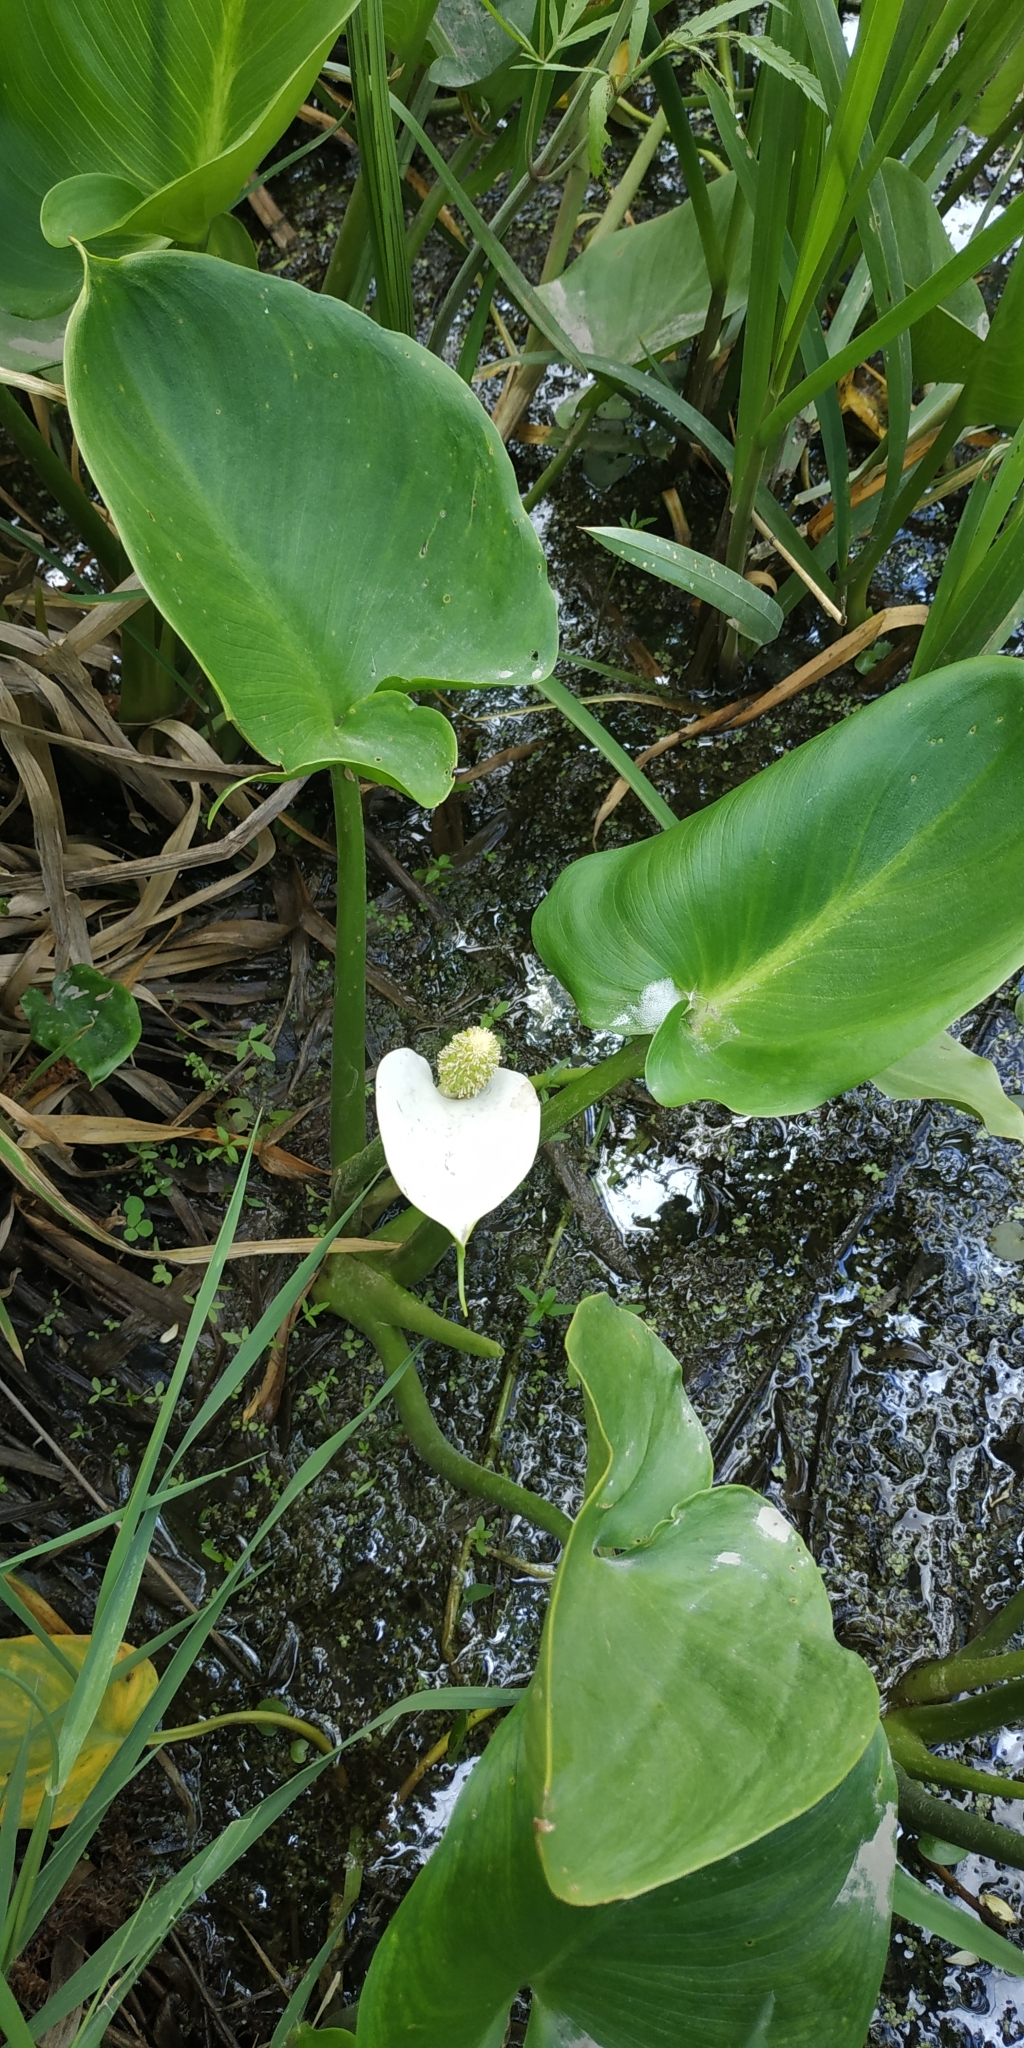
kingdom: Plantae
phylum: Tracheophyta
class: Liliopsida
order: Alismatales
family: Araceae
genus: Calla
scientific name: Calla palustris
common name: Bog arum
